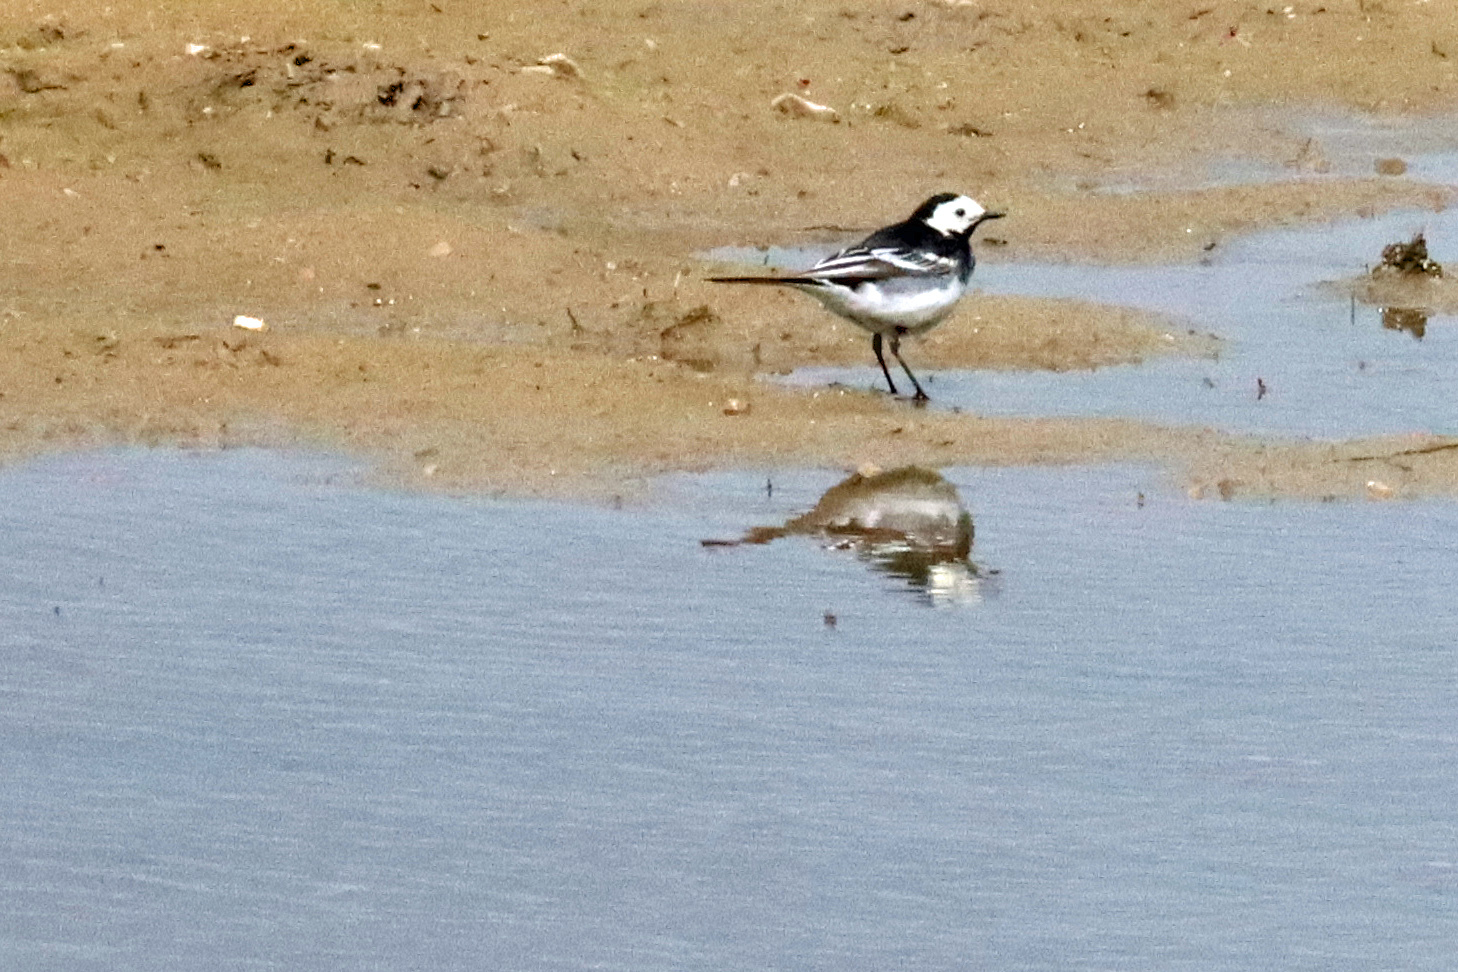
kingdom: Animalia
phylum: Chordata
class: Aves
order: Passeriformes
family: Motacillidae
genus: Motacilla
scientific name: Motacilla alba
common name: White wagtail
